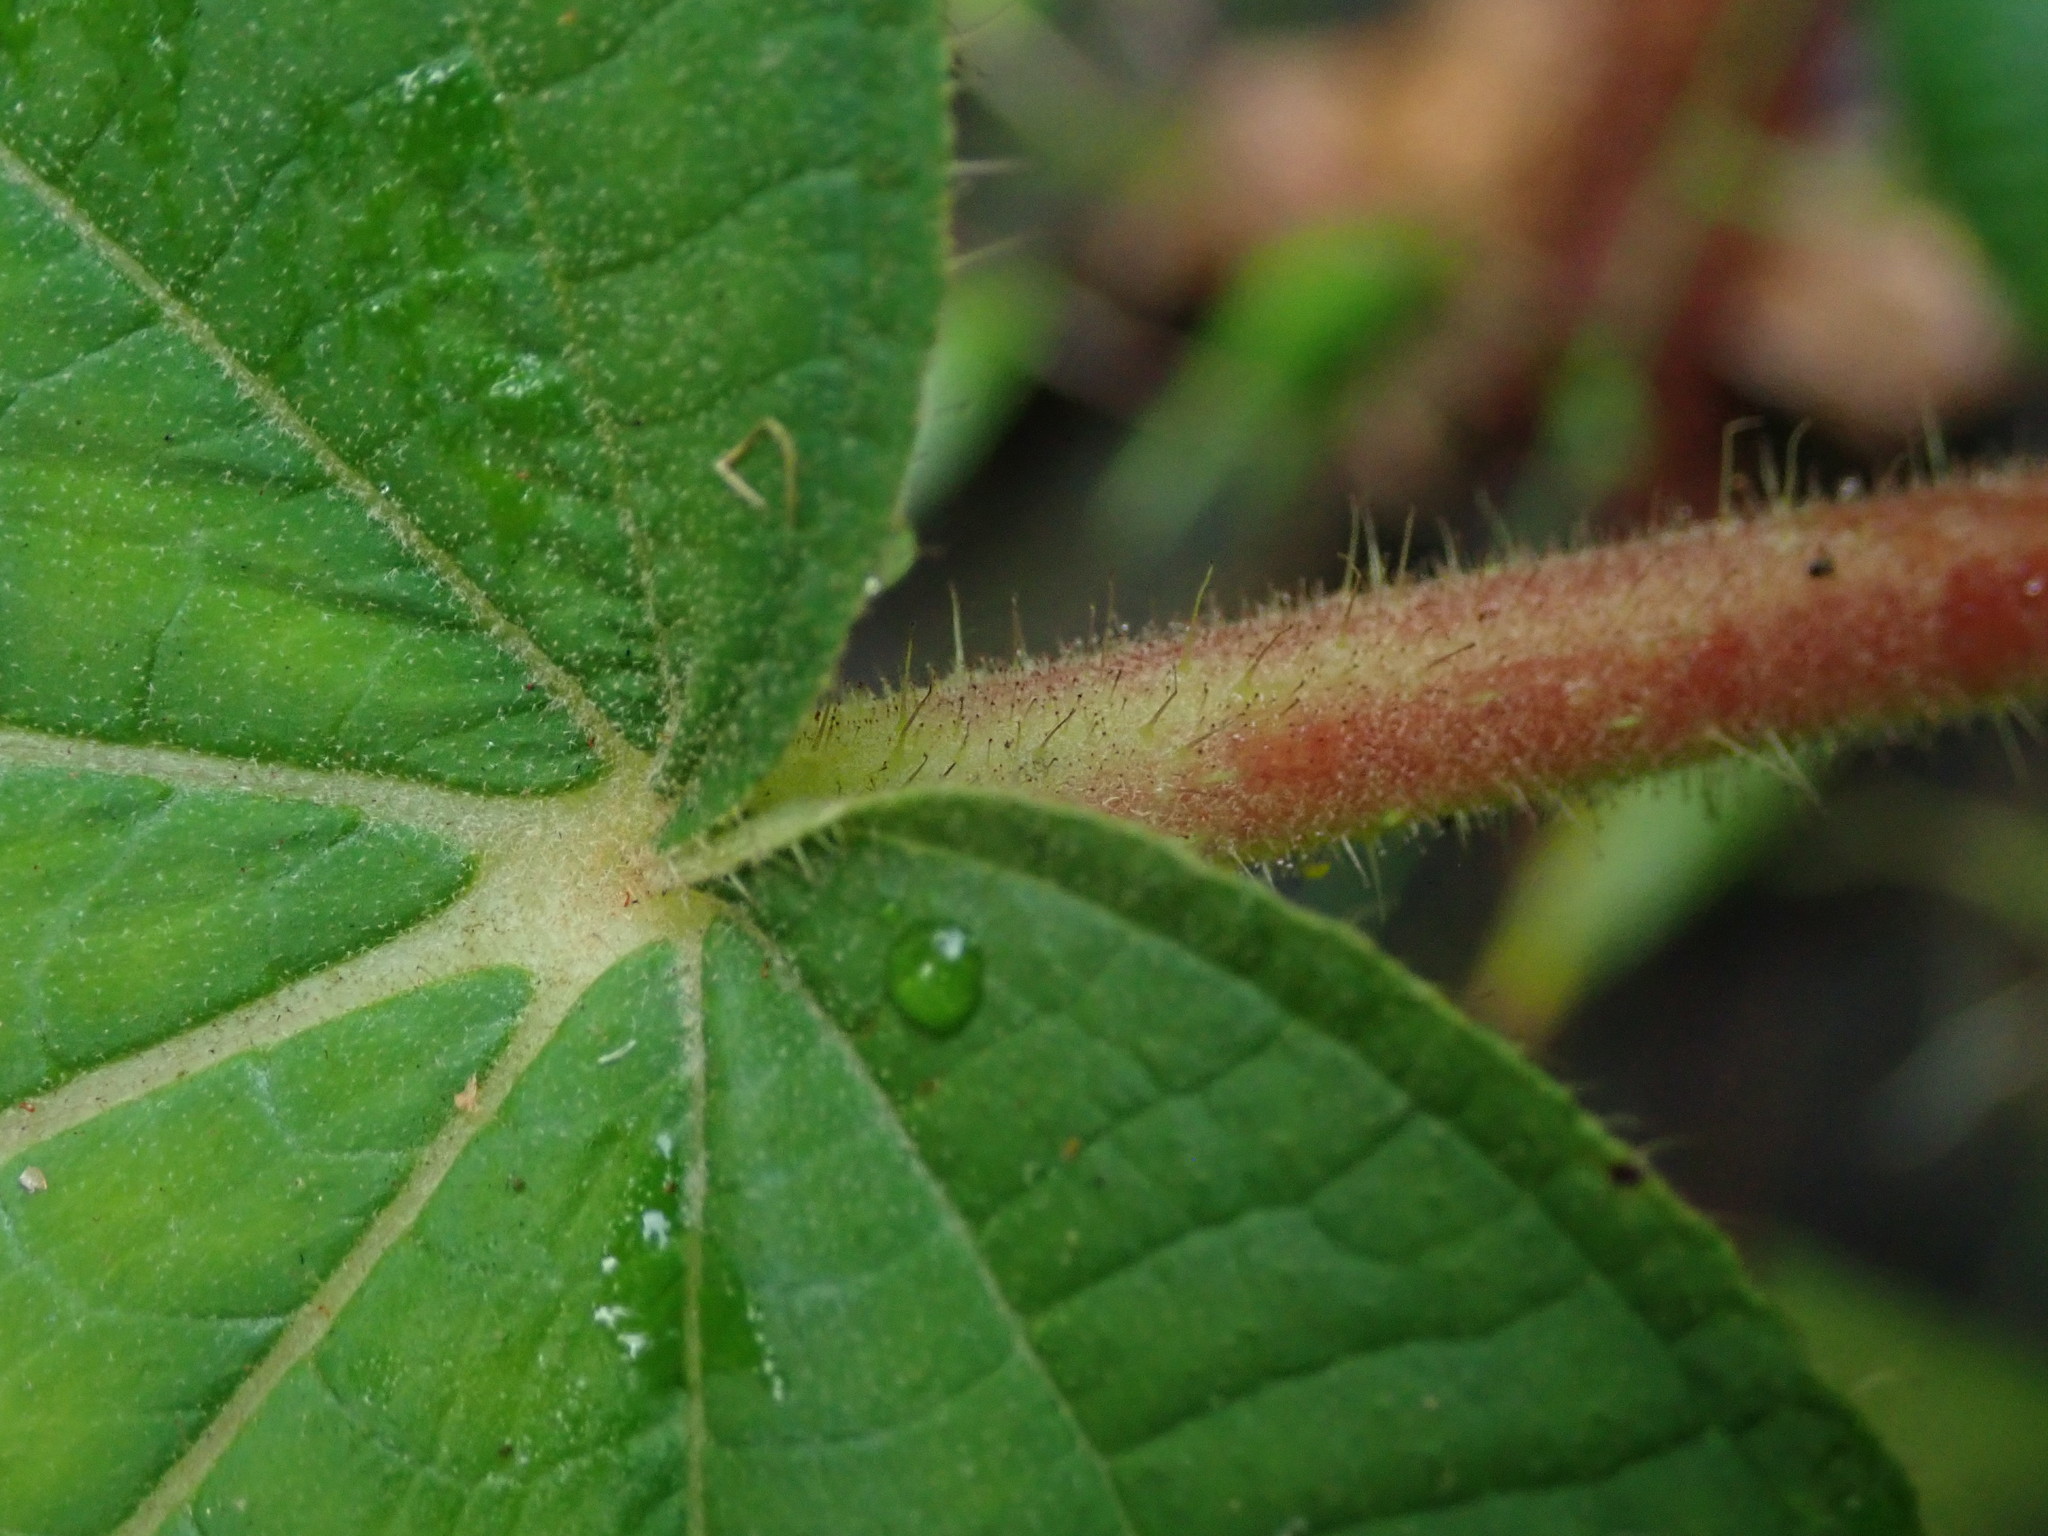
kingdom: Plantae
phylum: Tracheophyta
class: Magnoliopsida
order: Myrtales
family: Melastomataceae
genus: Miconia
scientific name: Miconia umbellata
